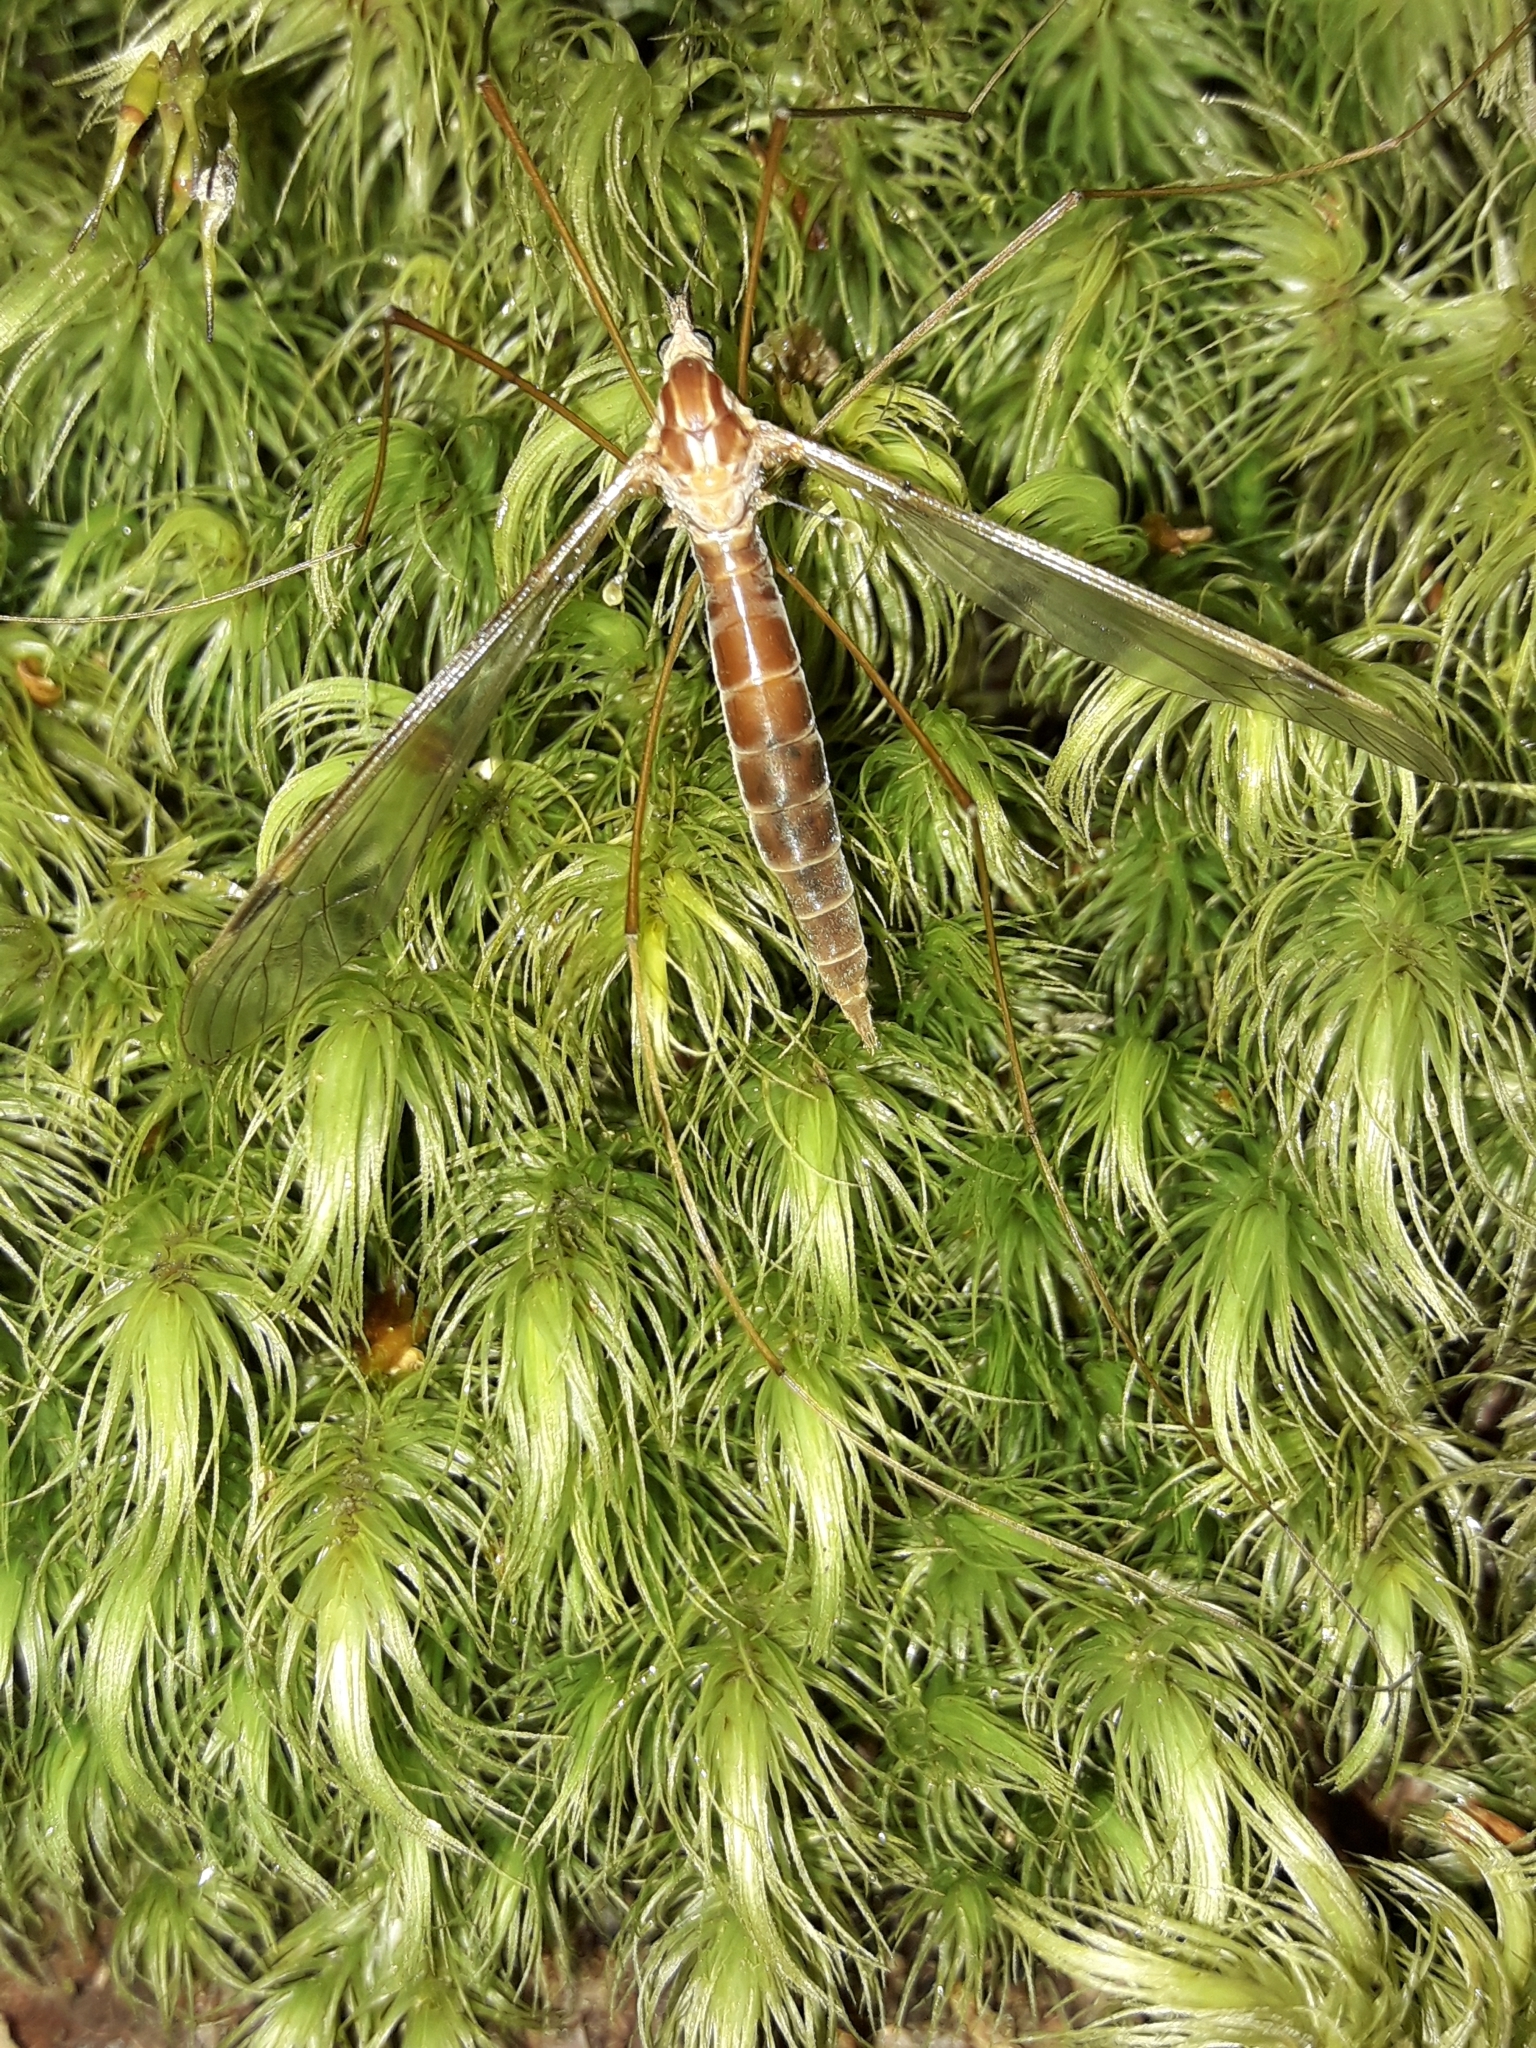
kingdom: Animalia
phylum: Arthropoda
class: Insecta
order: Diptera
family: Tipulidae
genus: Leptotarsus
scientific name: Leptotarsus elongatus
